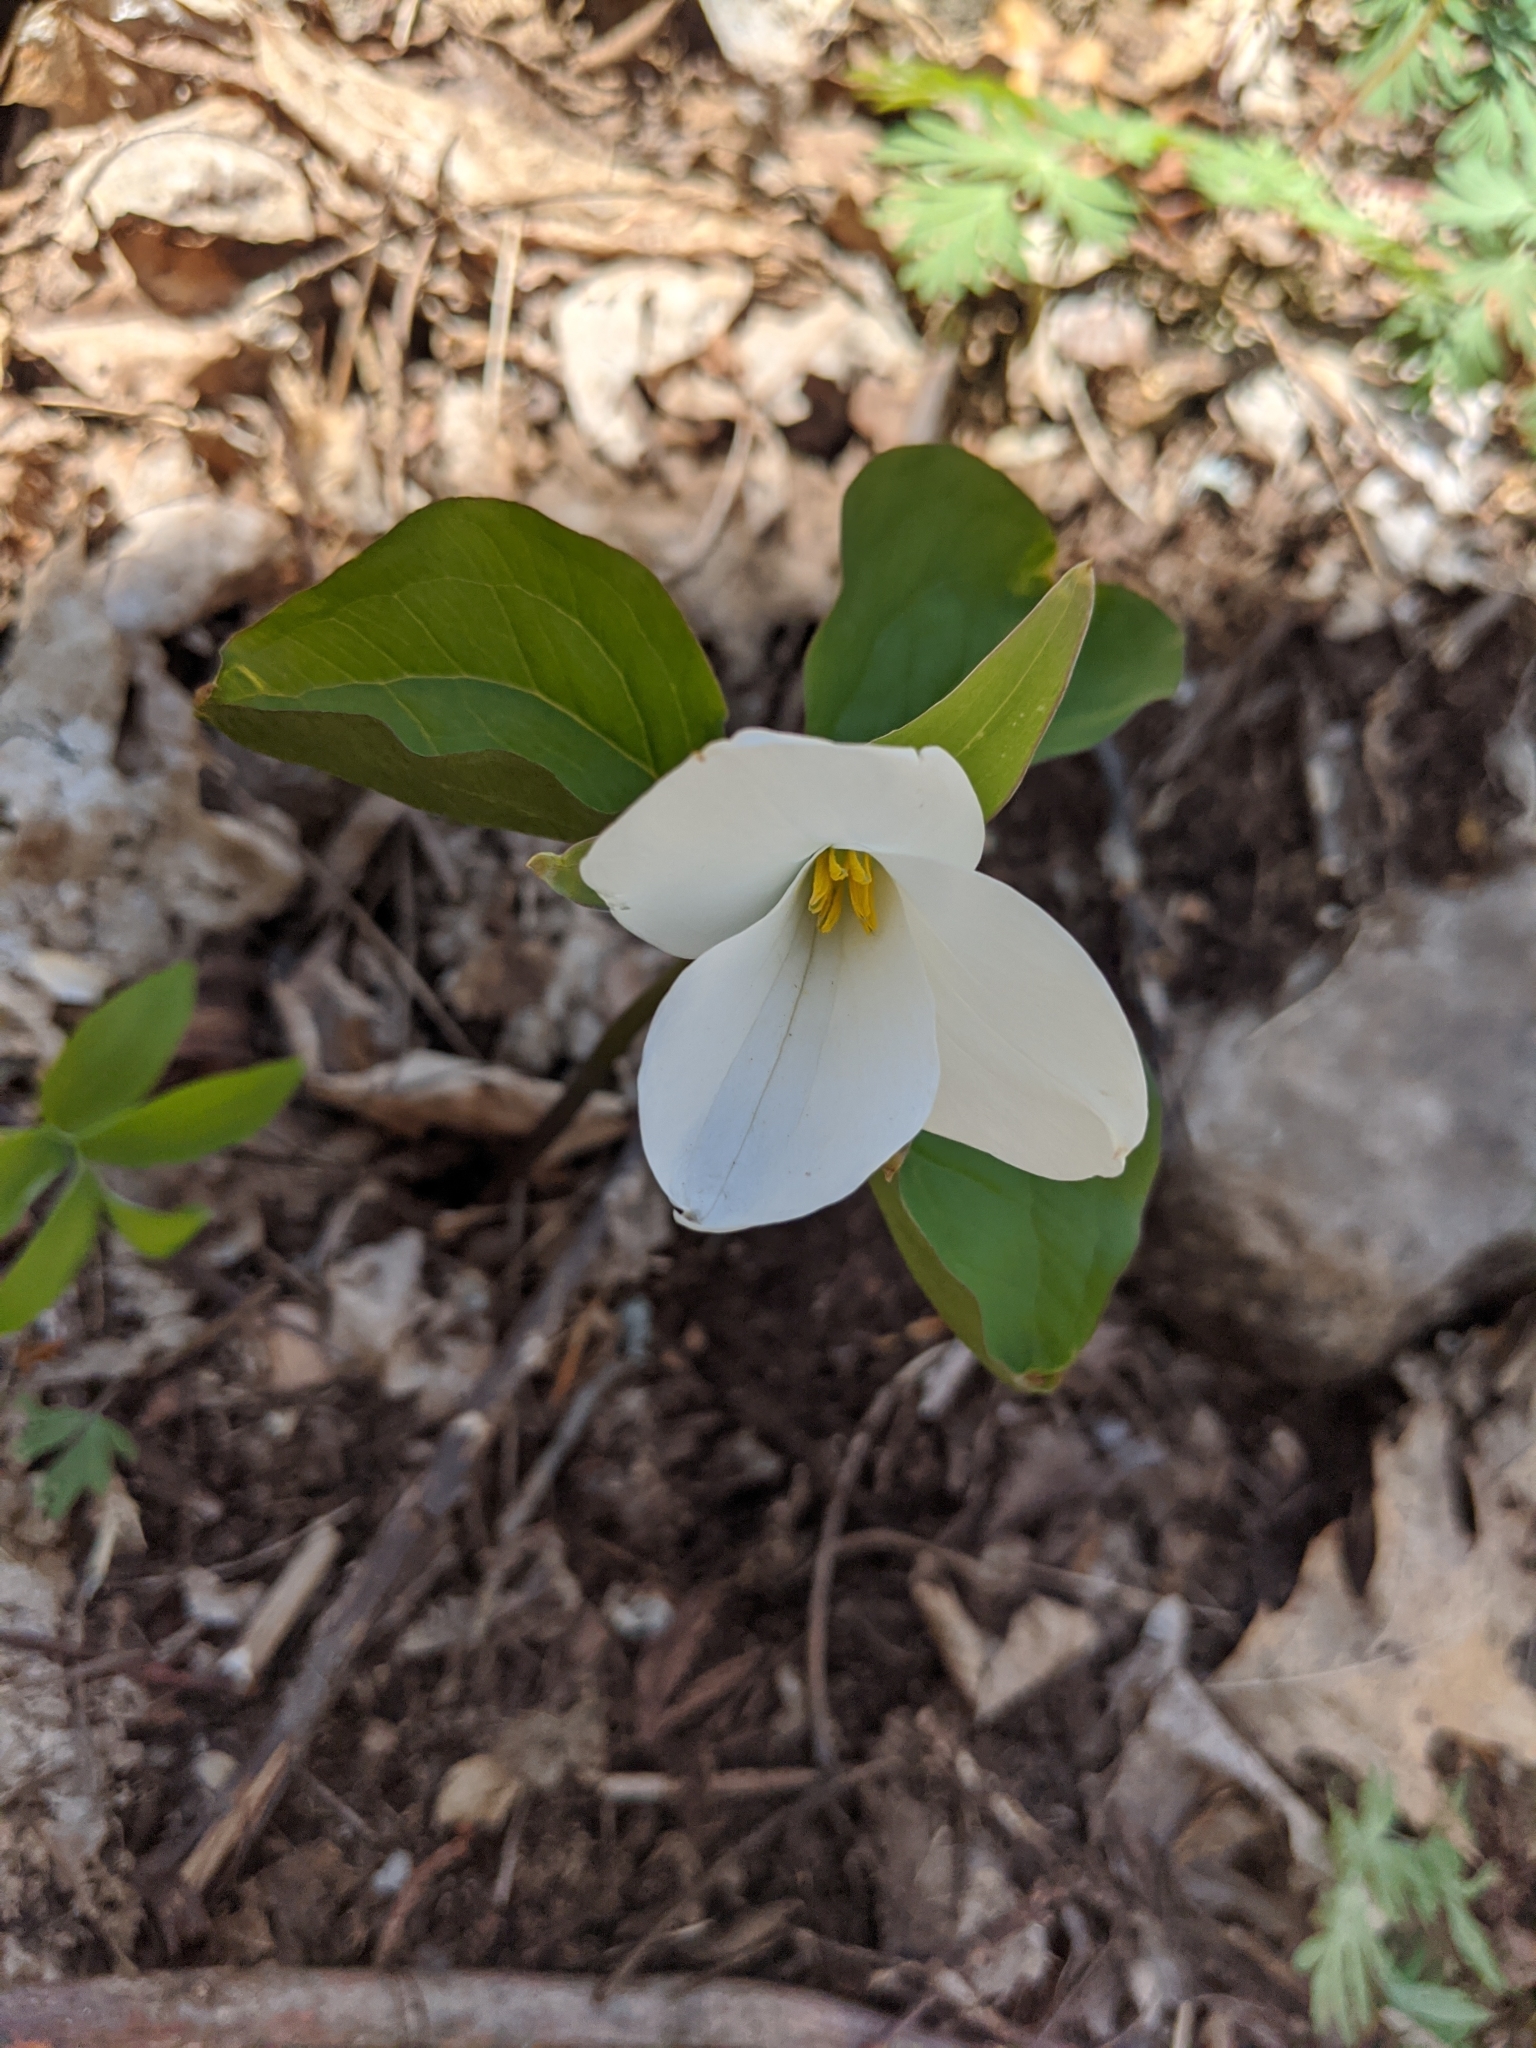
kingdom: Plantae
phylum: Tracheophyta
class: Liliopsida
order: Liliales
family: Melanthiaceae
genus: Trillium
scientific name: Trillium grandiflorum
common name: Great white trillium
